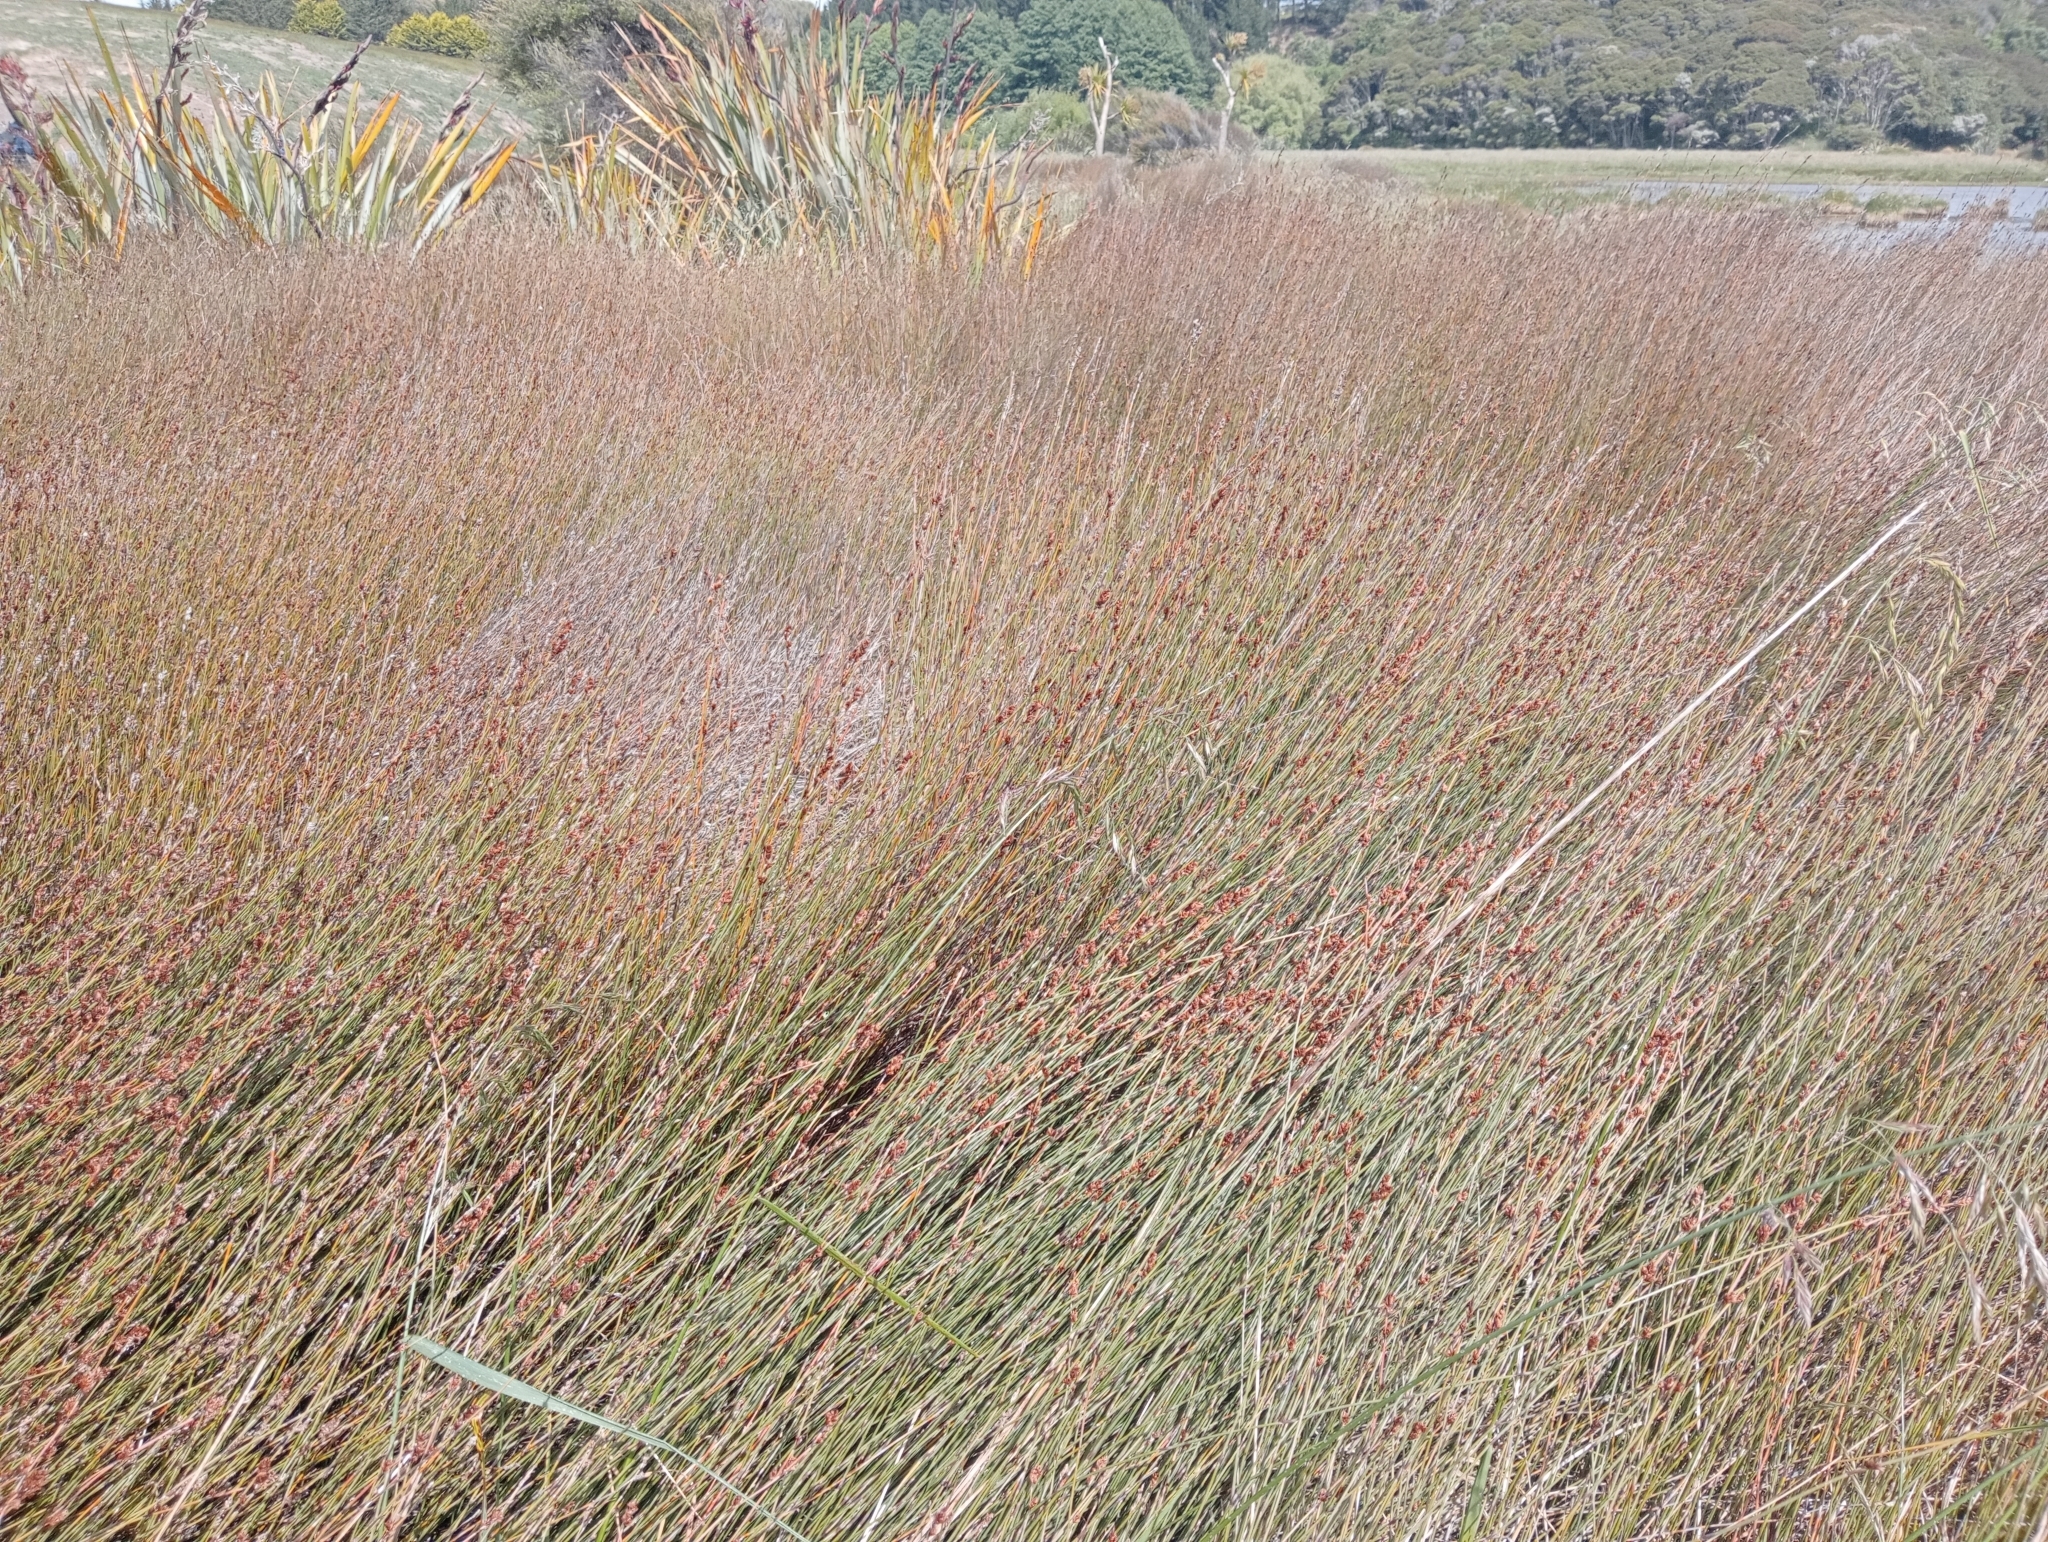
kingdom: Plantae
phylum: Tracheophyta
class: Liliopsida
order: Poales
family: Restionaceae
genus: Apodasmia
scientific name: Apodasmia similis
